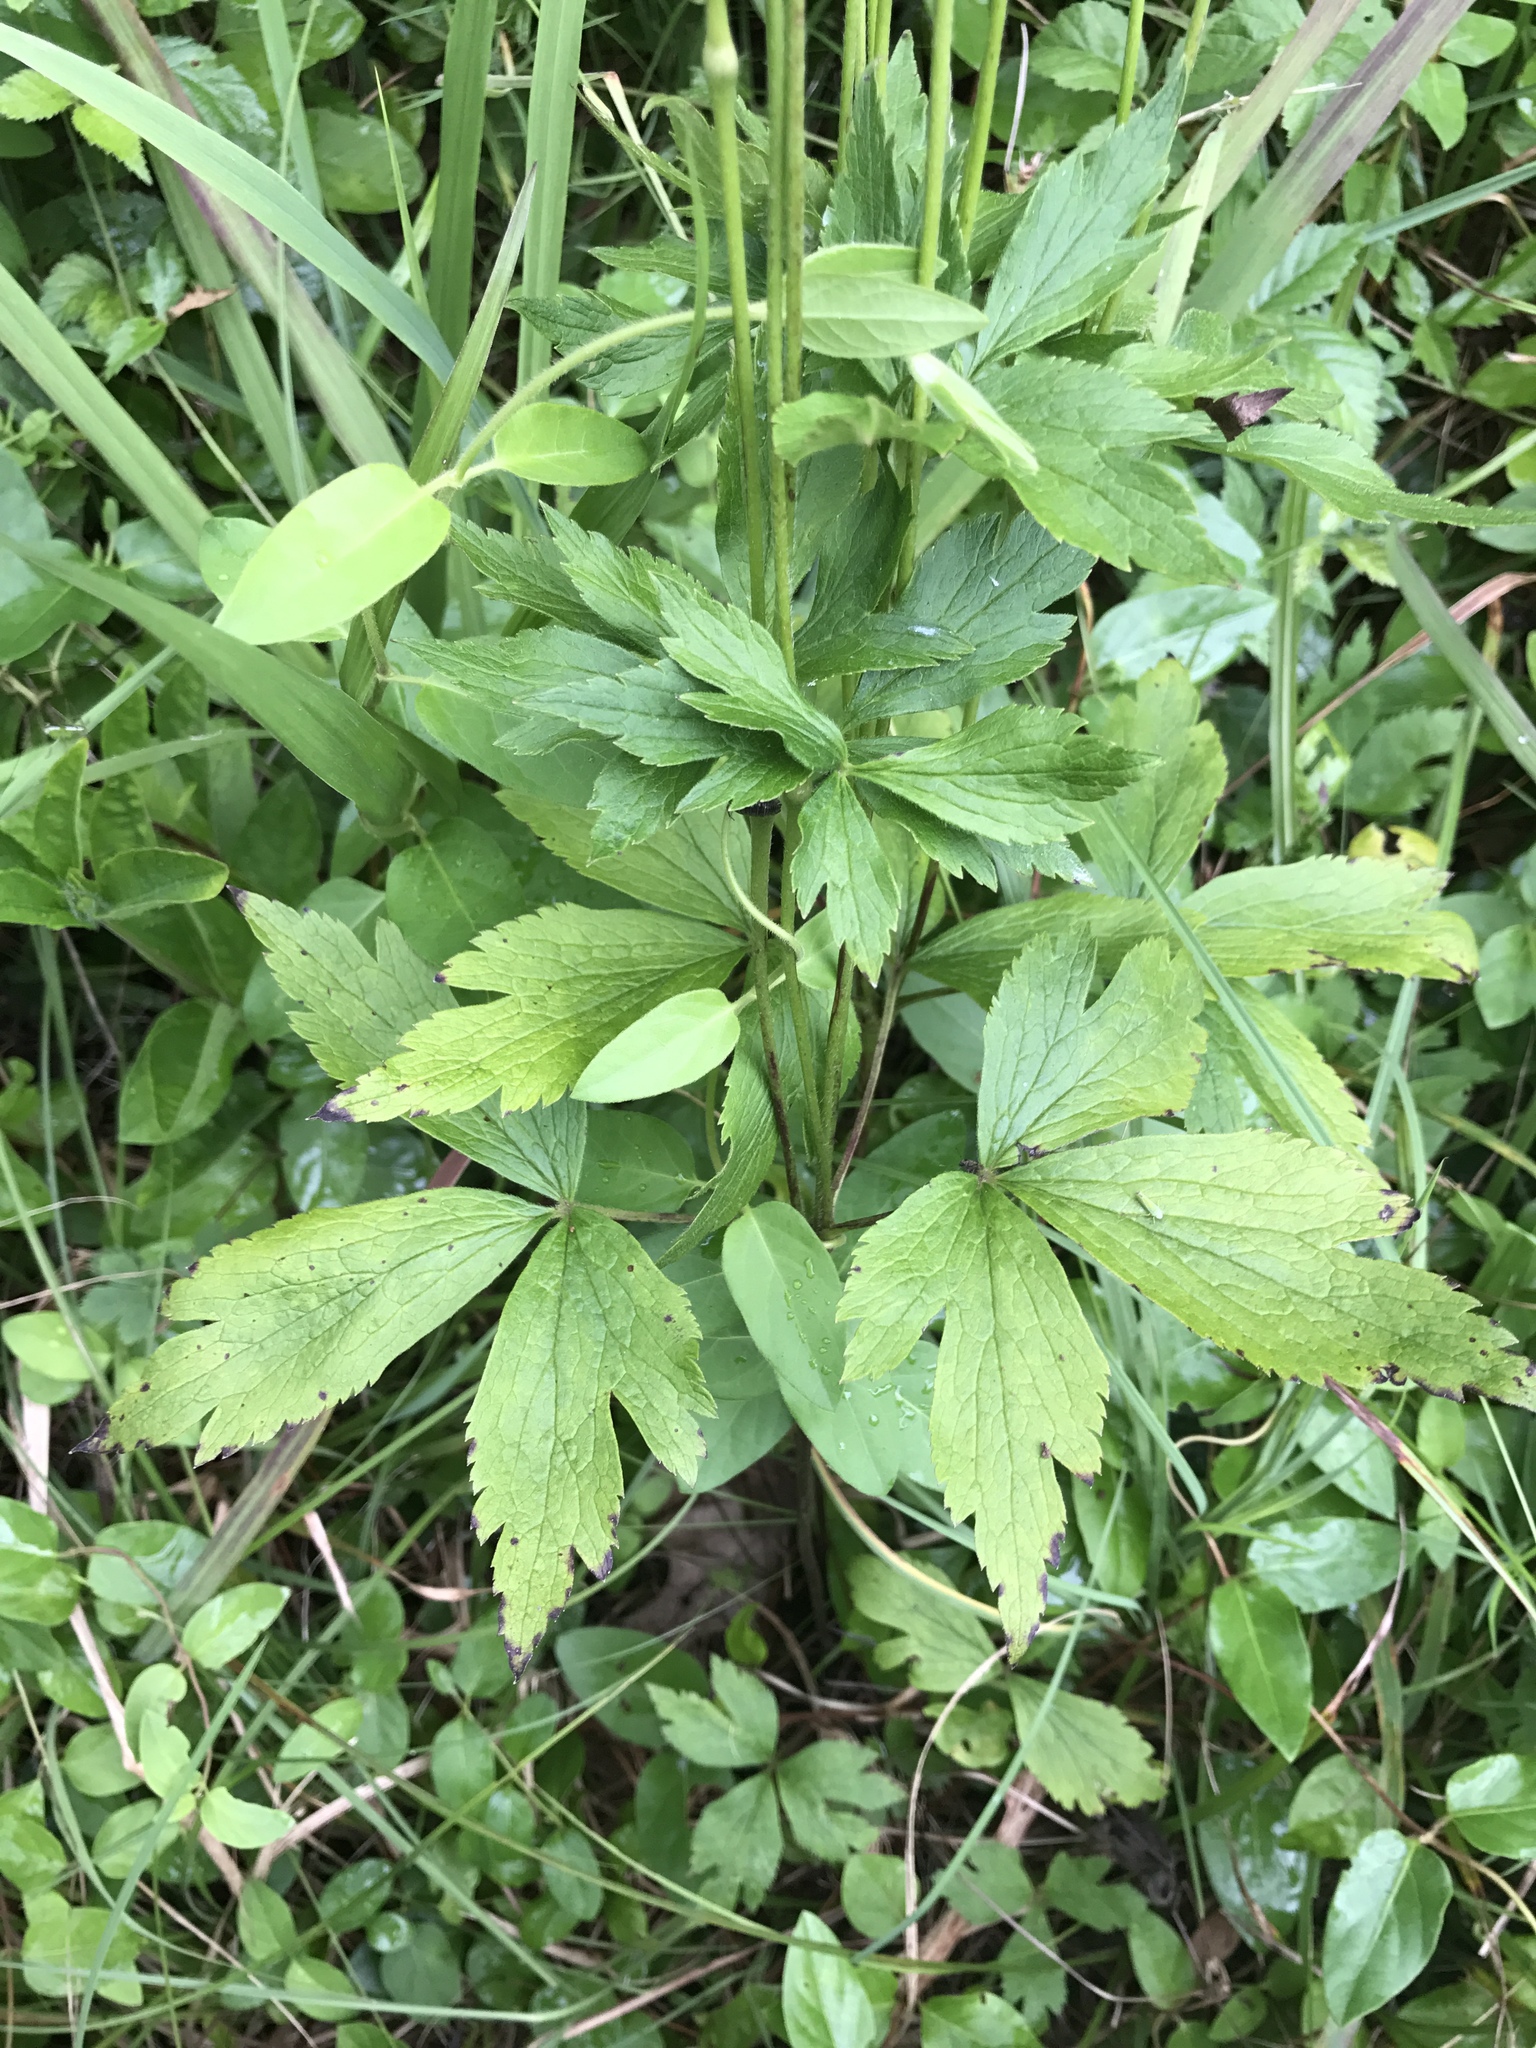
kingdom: Plantae
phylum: Tracheophyta
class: Magnoliopsida
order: Ranunculales
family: Ranunculaceae
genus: Anemone
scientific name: Anemone virginiana
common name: Tall anemone
